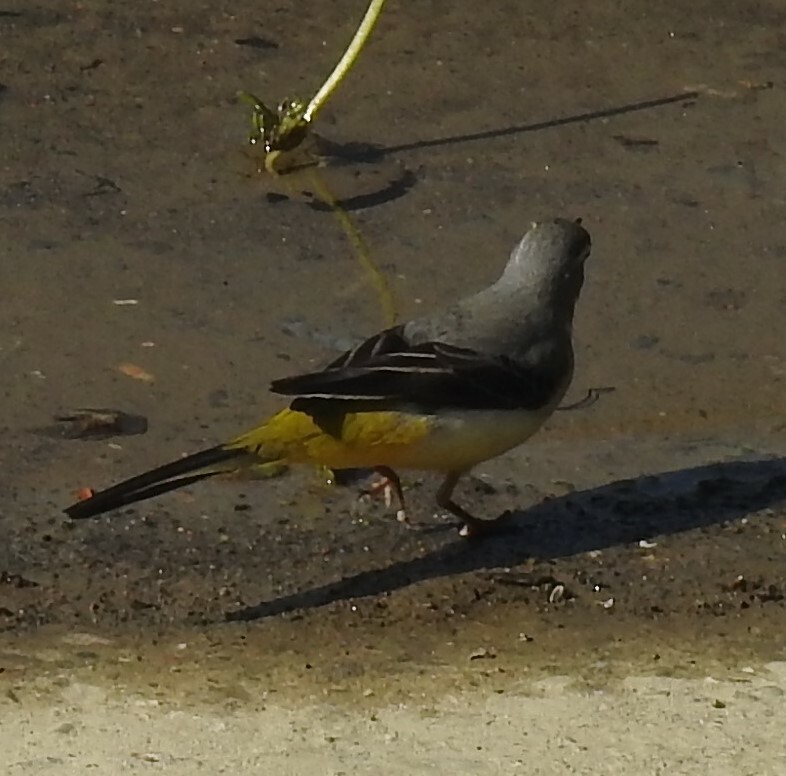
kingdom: Animalia
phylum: Chordata
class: Aves
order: Passeriformes
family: Motacillidae
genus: Motacilla
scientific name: Motacilla cinerea
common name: Grey wagtail
